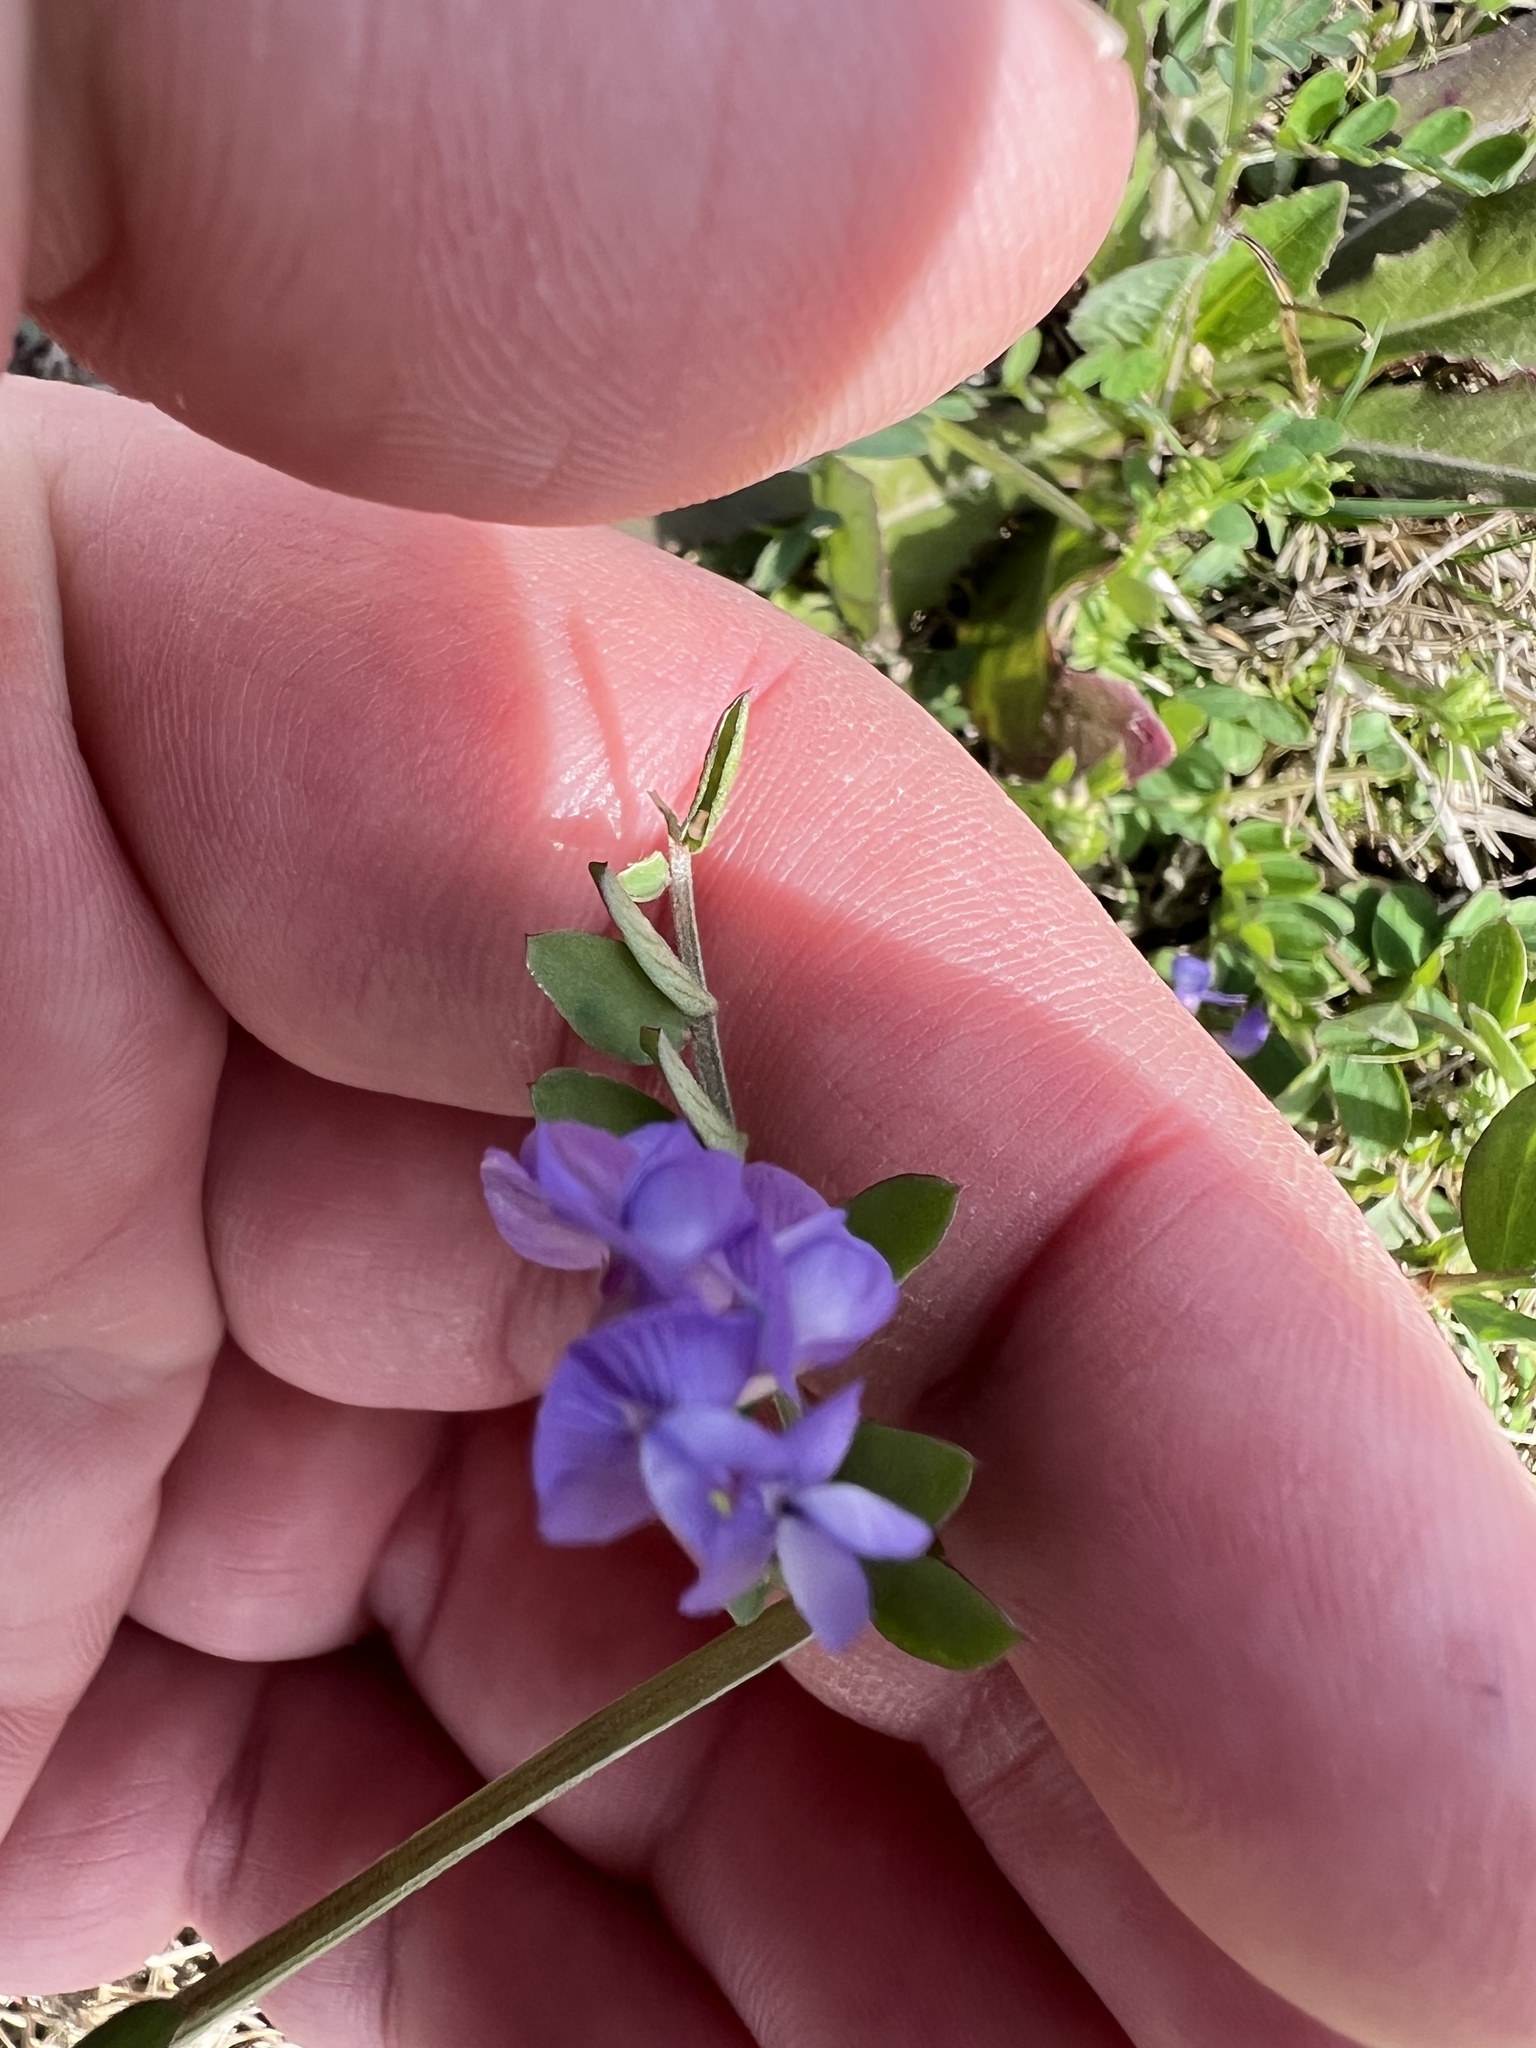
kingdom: Plantae
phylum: Tracheophyta
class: Magnoliopsida
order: Fabales
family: Fabaceae
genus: Vicia
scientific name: Vicia ludoviciana
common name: Louisiana vetch
